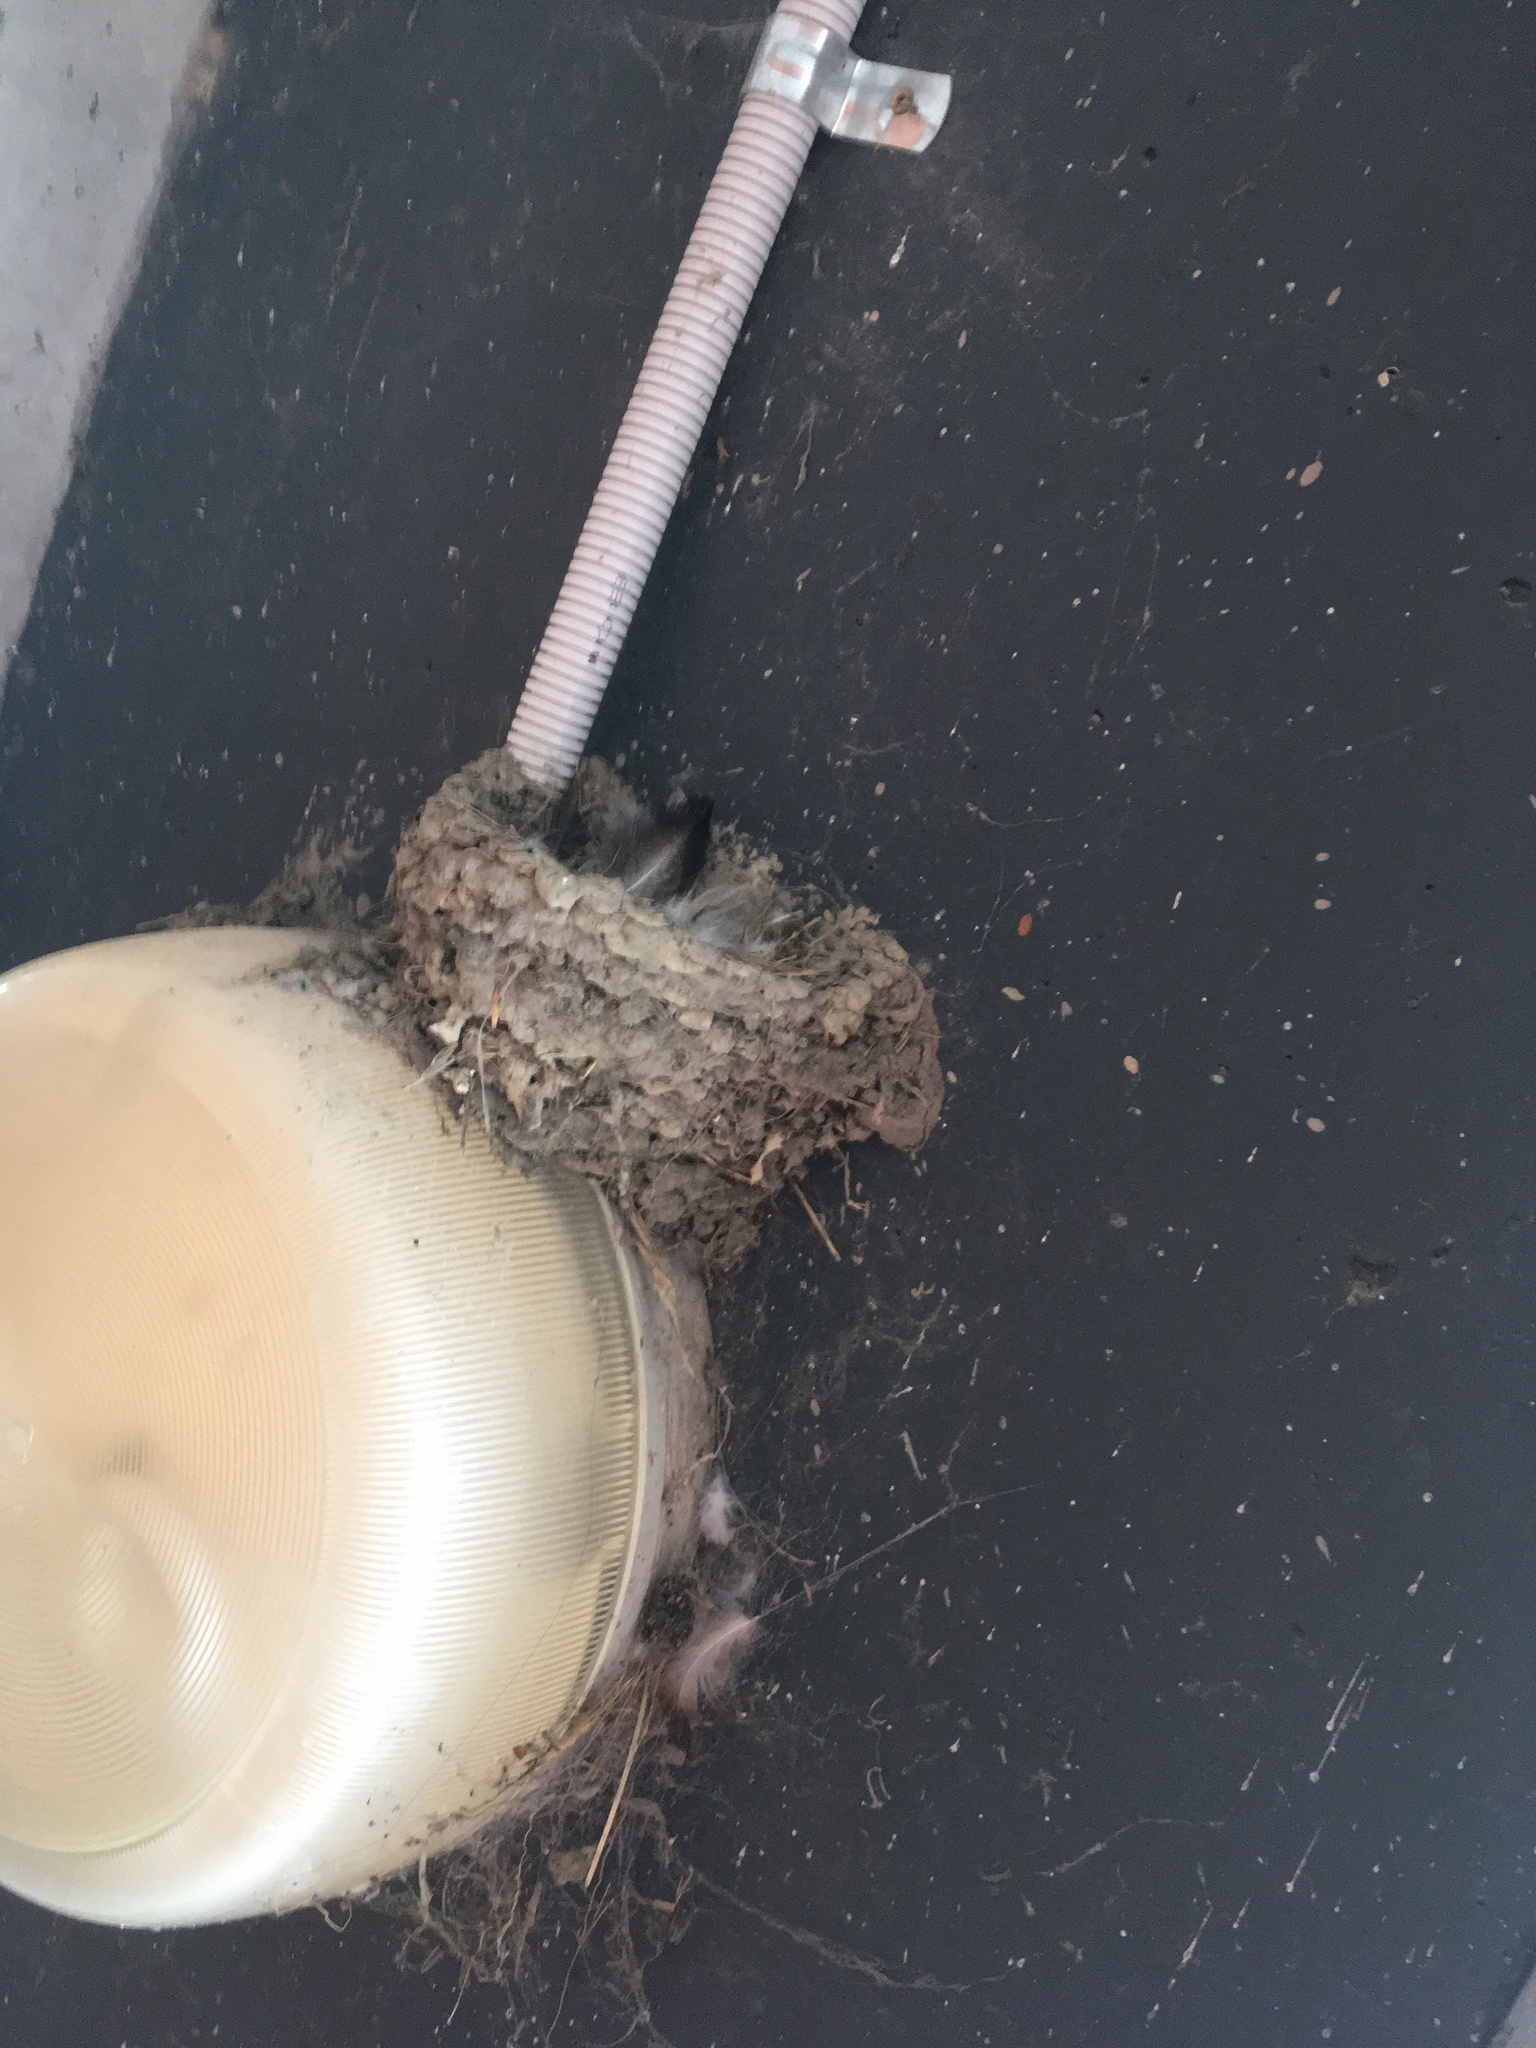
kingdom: Animalia
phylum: Chordata
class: Aves
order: Passeriformes
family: Hirundinidae
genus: Hirundo
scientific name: Hirundo neoxena
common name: Welcome swallow
